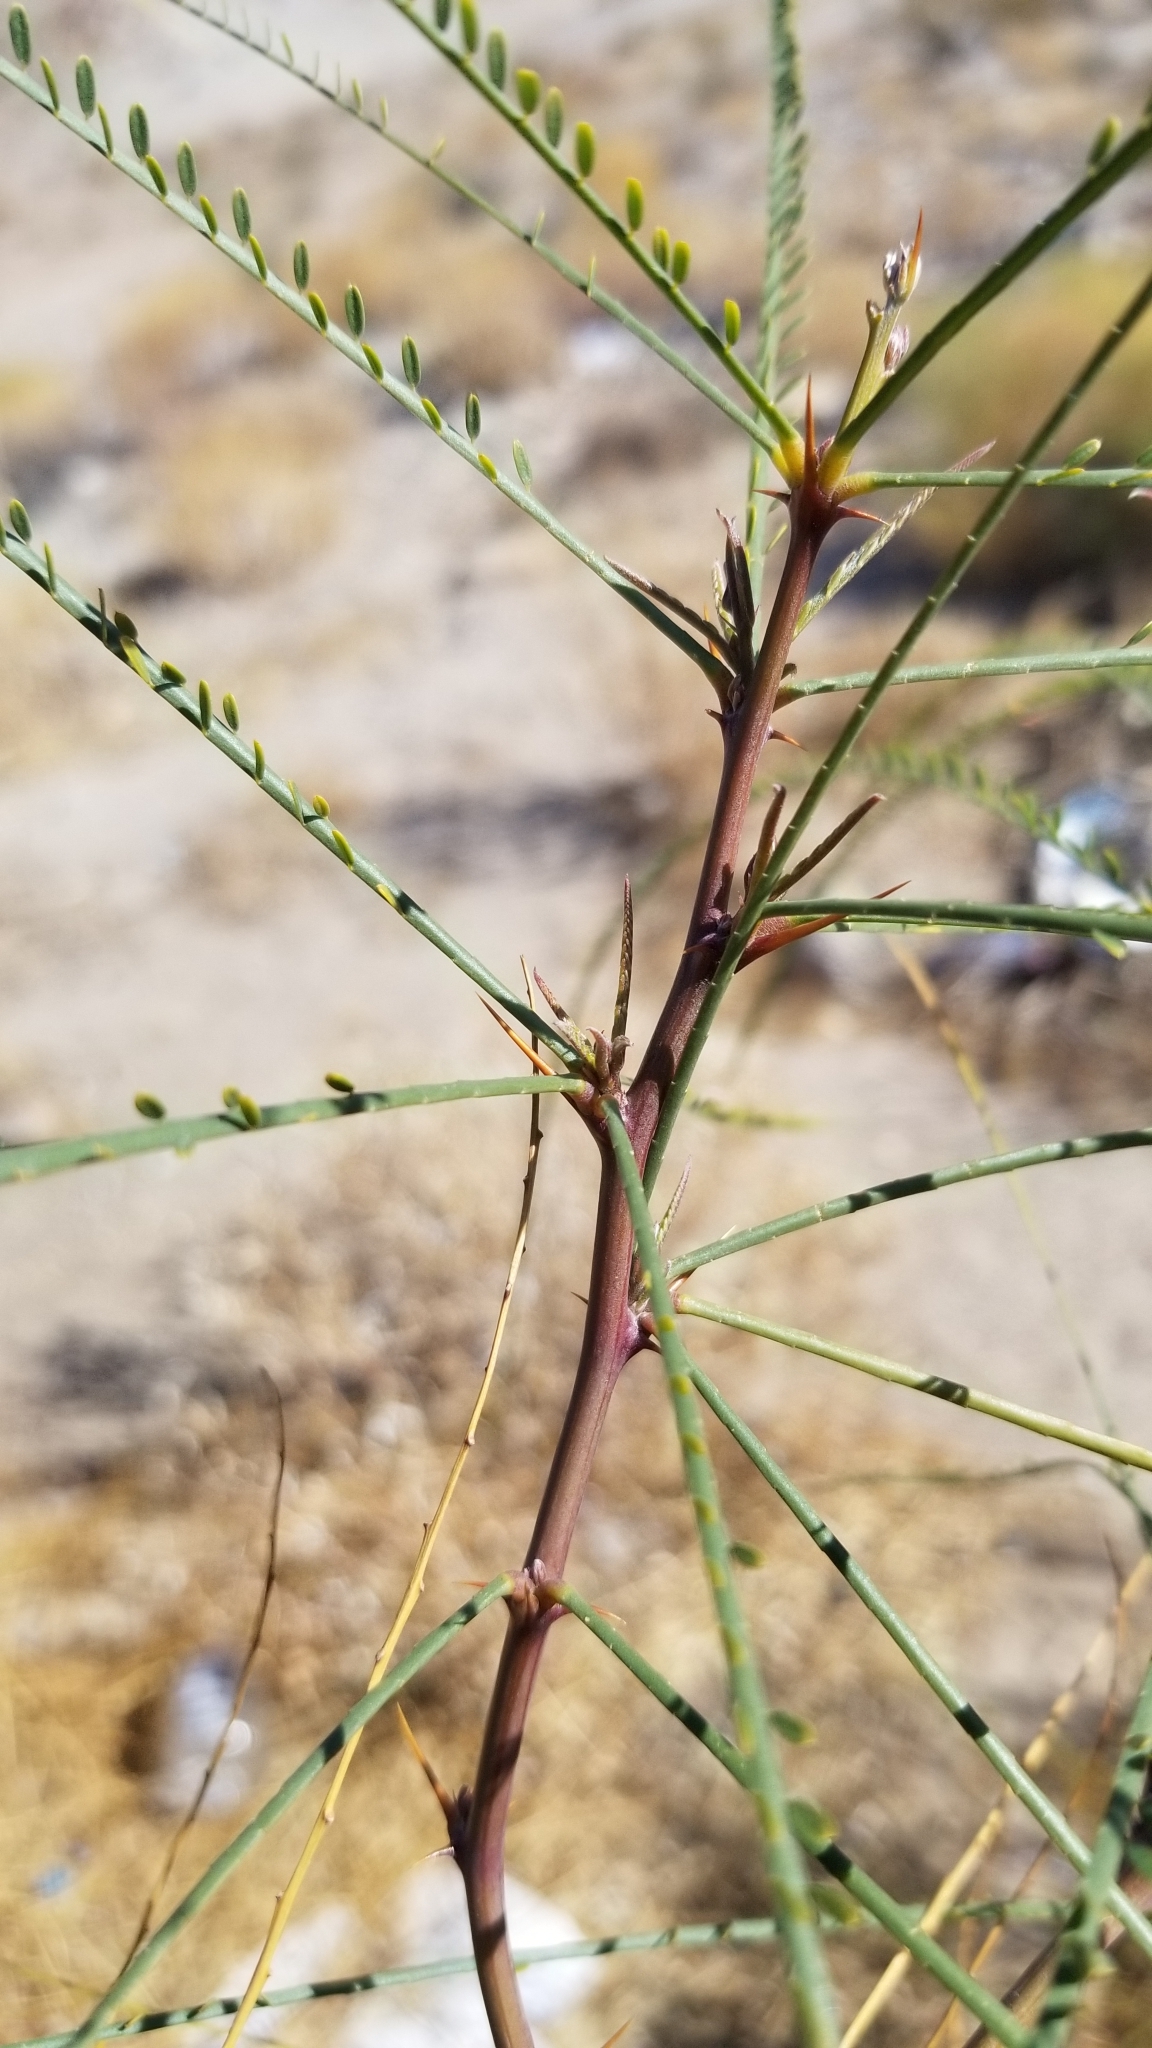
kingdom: Plantae
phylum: Tracheophyta
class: Magnoliopsida
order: Fabales
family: Fabaceae
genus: Parkinsonia
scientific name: Parkinsonia aculeata
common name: Jerusalem thorn
